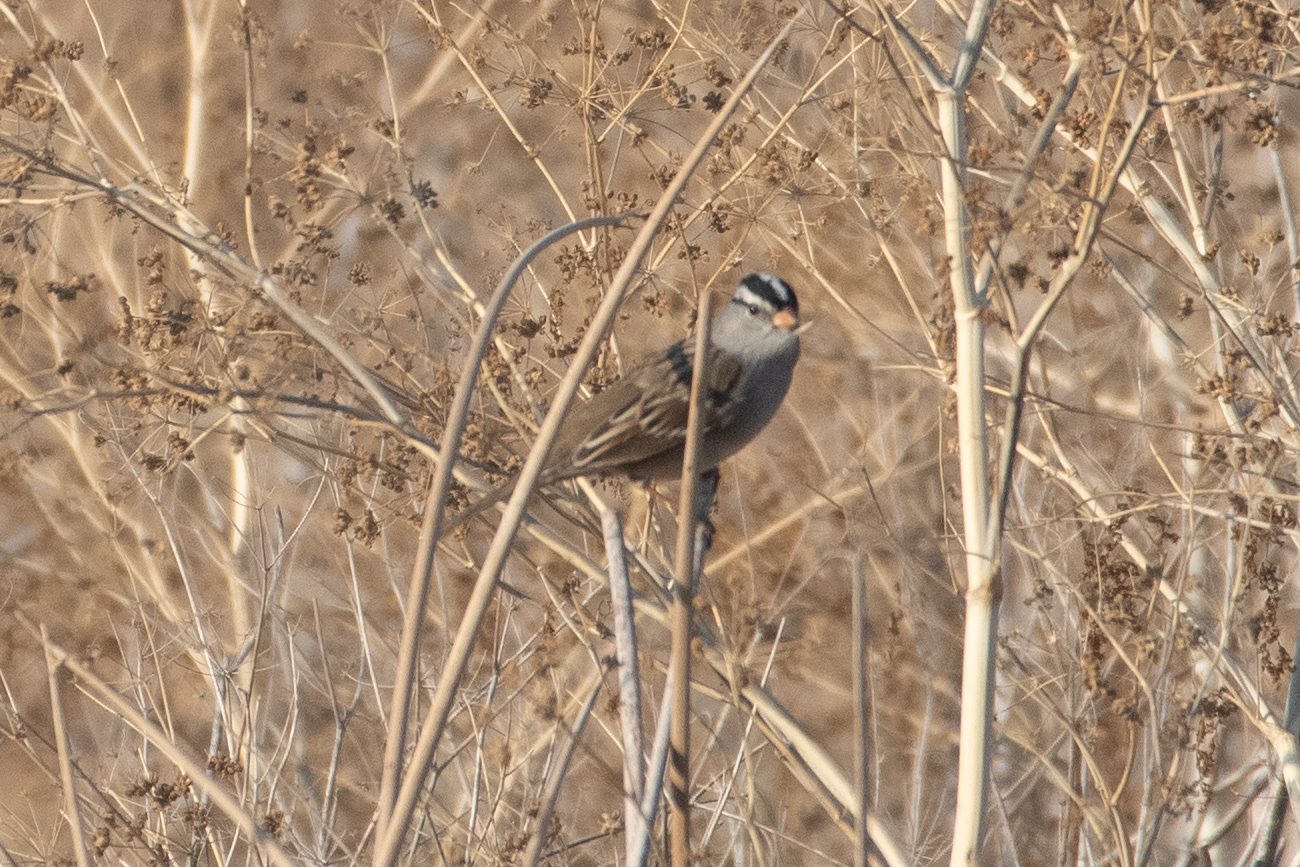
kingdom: Animalia
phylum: Chordata
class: Aves
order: Passeriformes
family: Passerellidae
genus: Zonotrichia
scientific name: Zonotrichia leucophrys
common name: White-crowned sparrow
